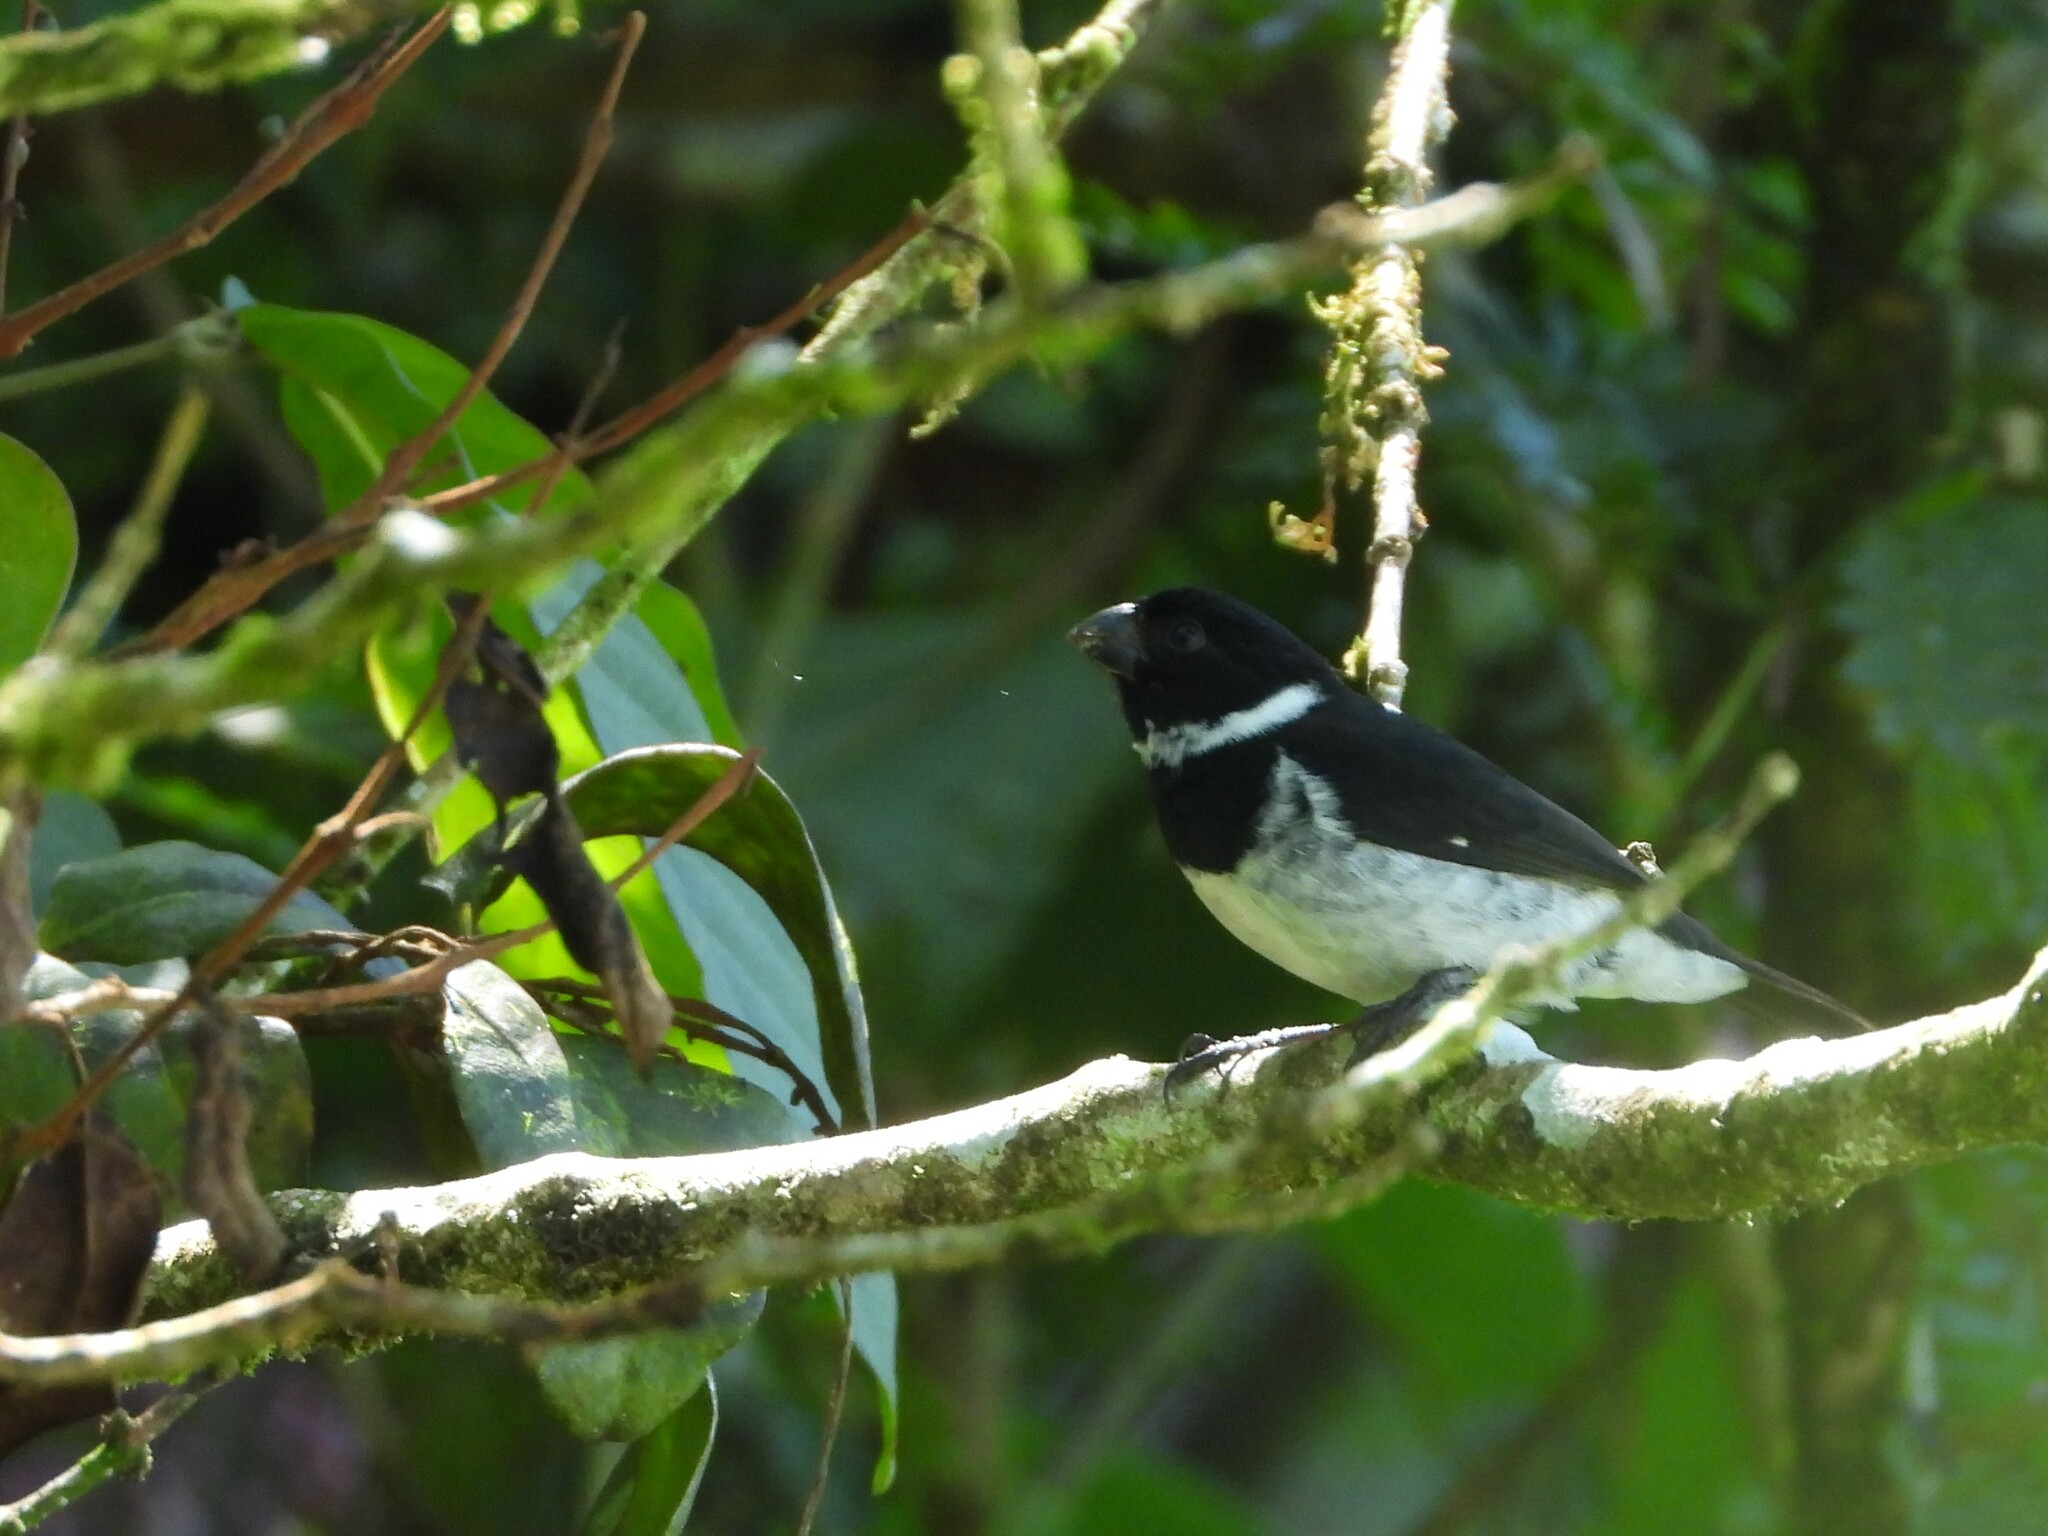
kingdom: Animalia
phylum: Chordata
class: Aves
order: Passeriformes
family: Thraupidae
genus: Sporophila
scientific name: Sporophila corvina
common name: Variable seedeater
